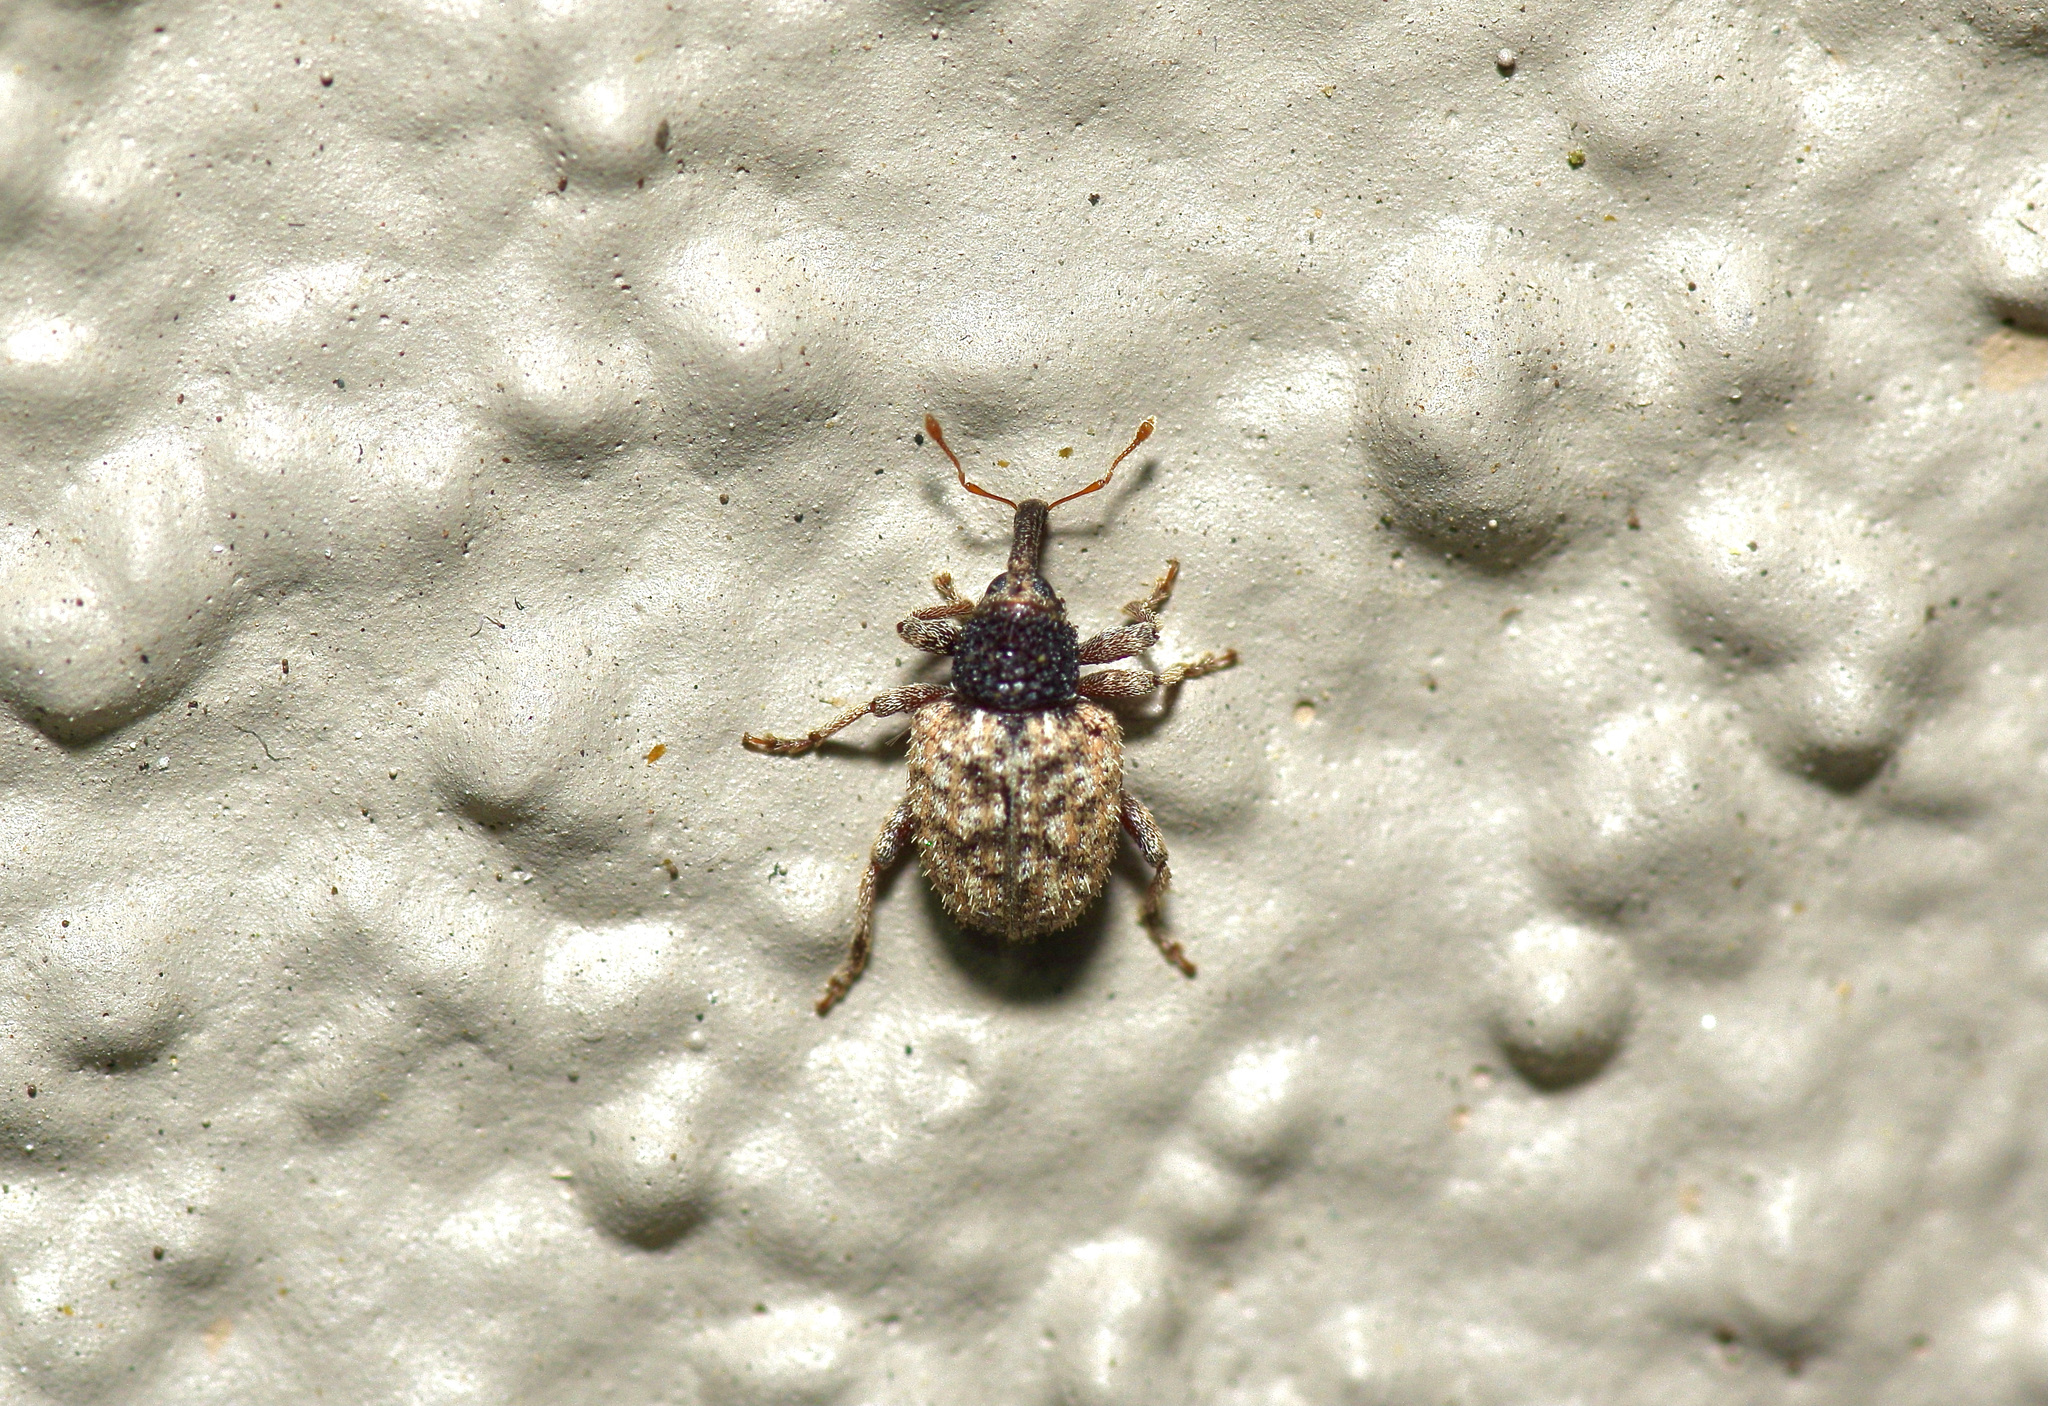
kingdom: Animalia
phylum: Arthropoda
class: Insecta
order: Coleoptera
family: Curculionidae
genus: Pheloconus
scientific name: Pheloconus cribricollis
